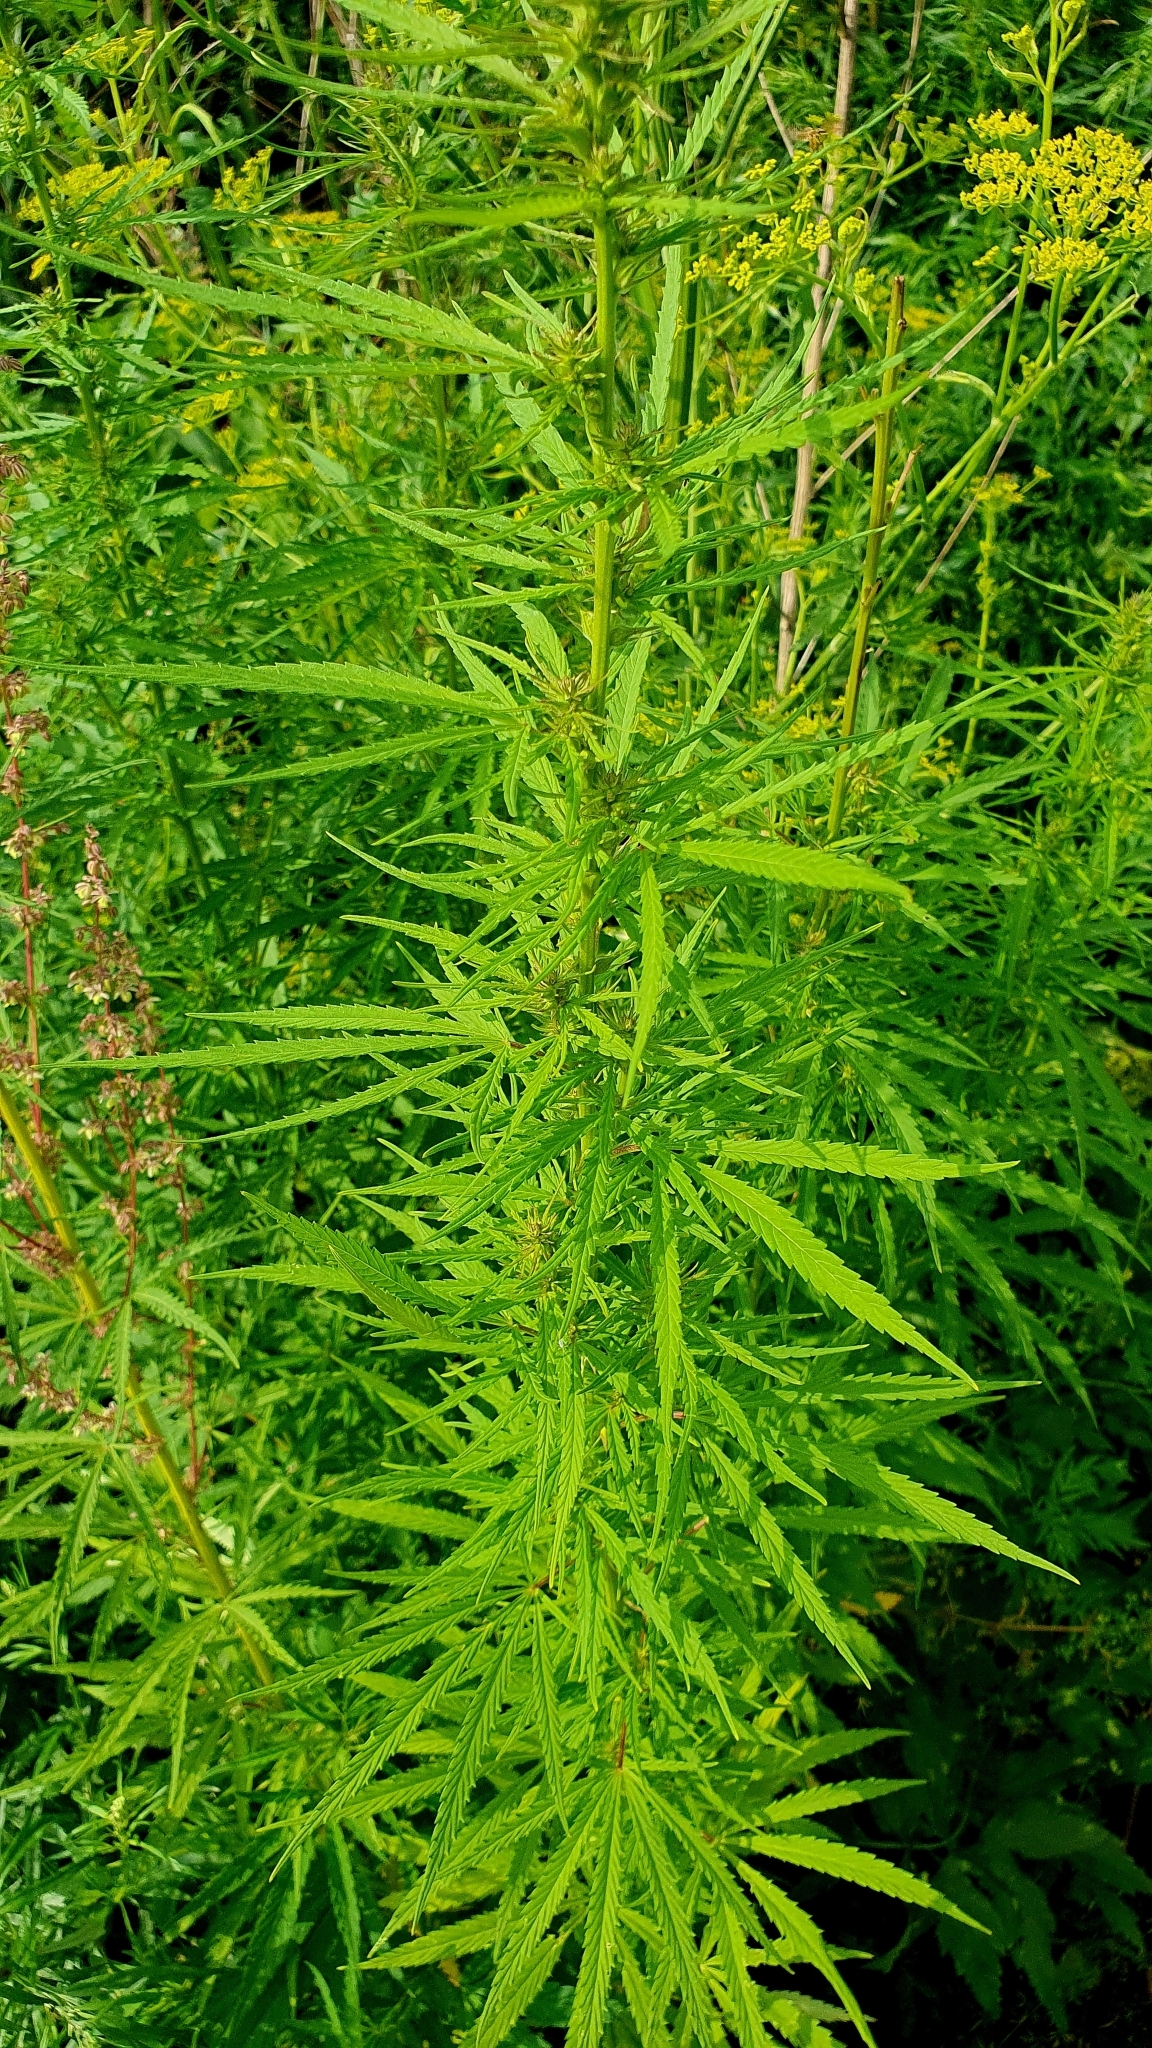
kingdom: Plantae
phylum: Tracheophyta
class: Magnoliopsida
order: Rosales
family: Cannabaceae
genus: Cannabis
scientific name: Cannabis sativa
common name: Hemp
